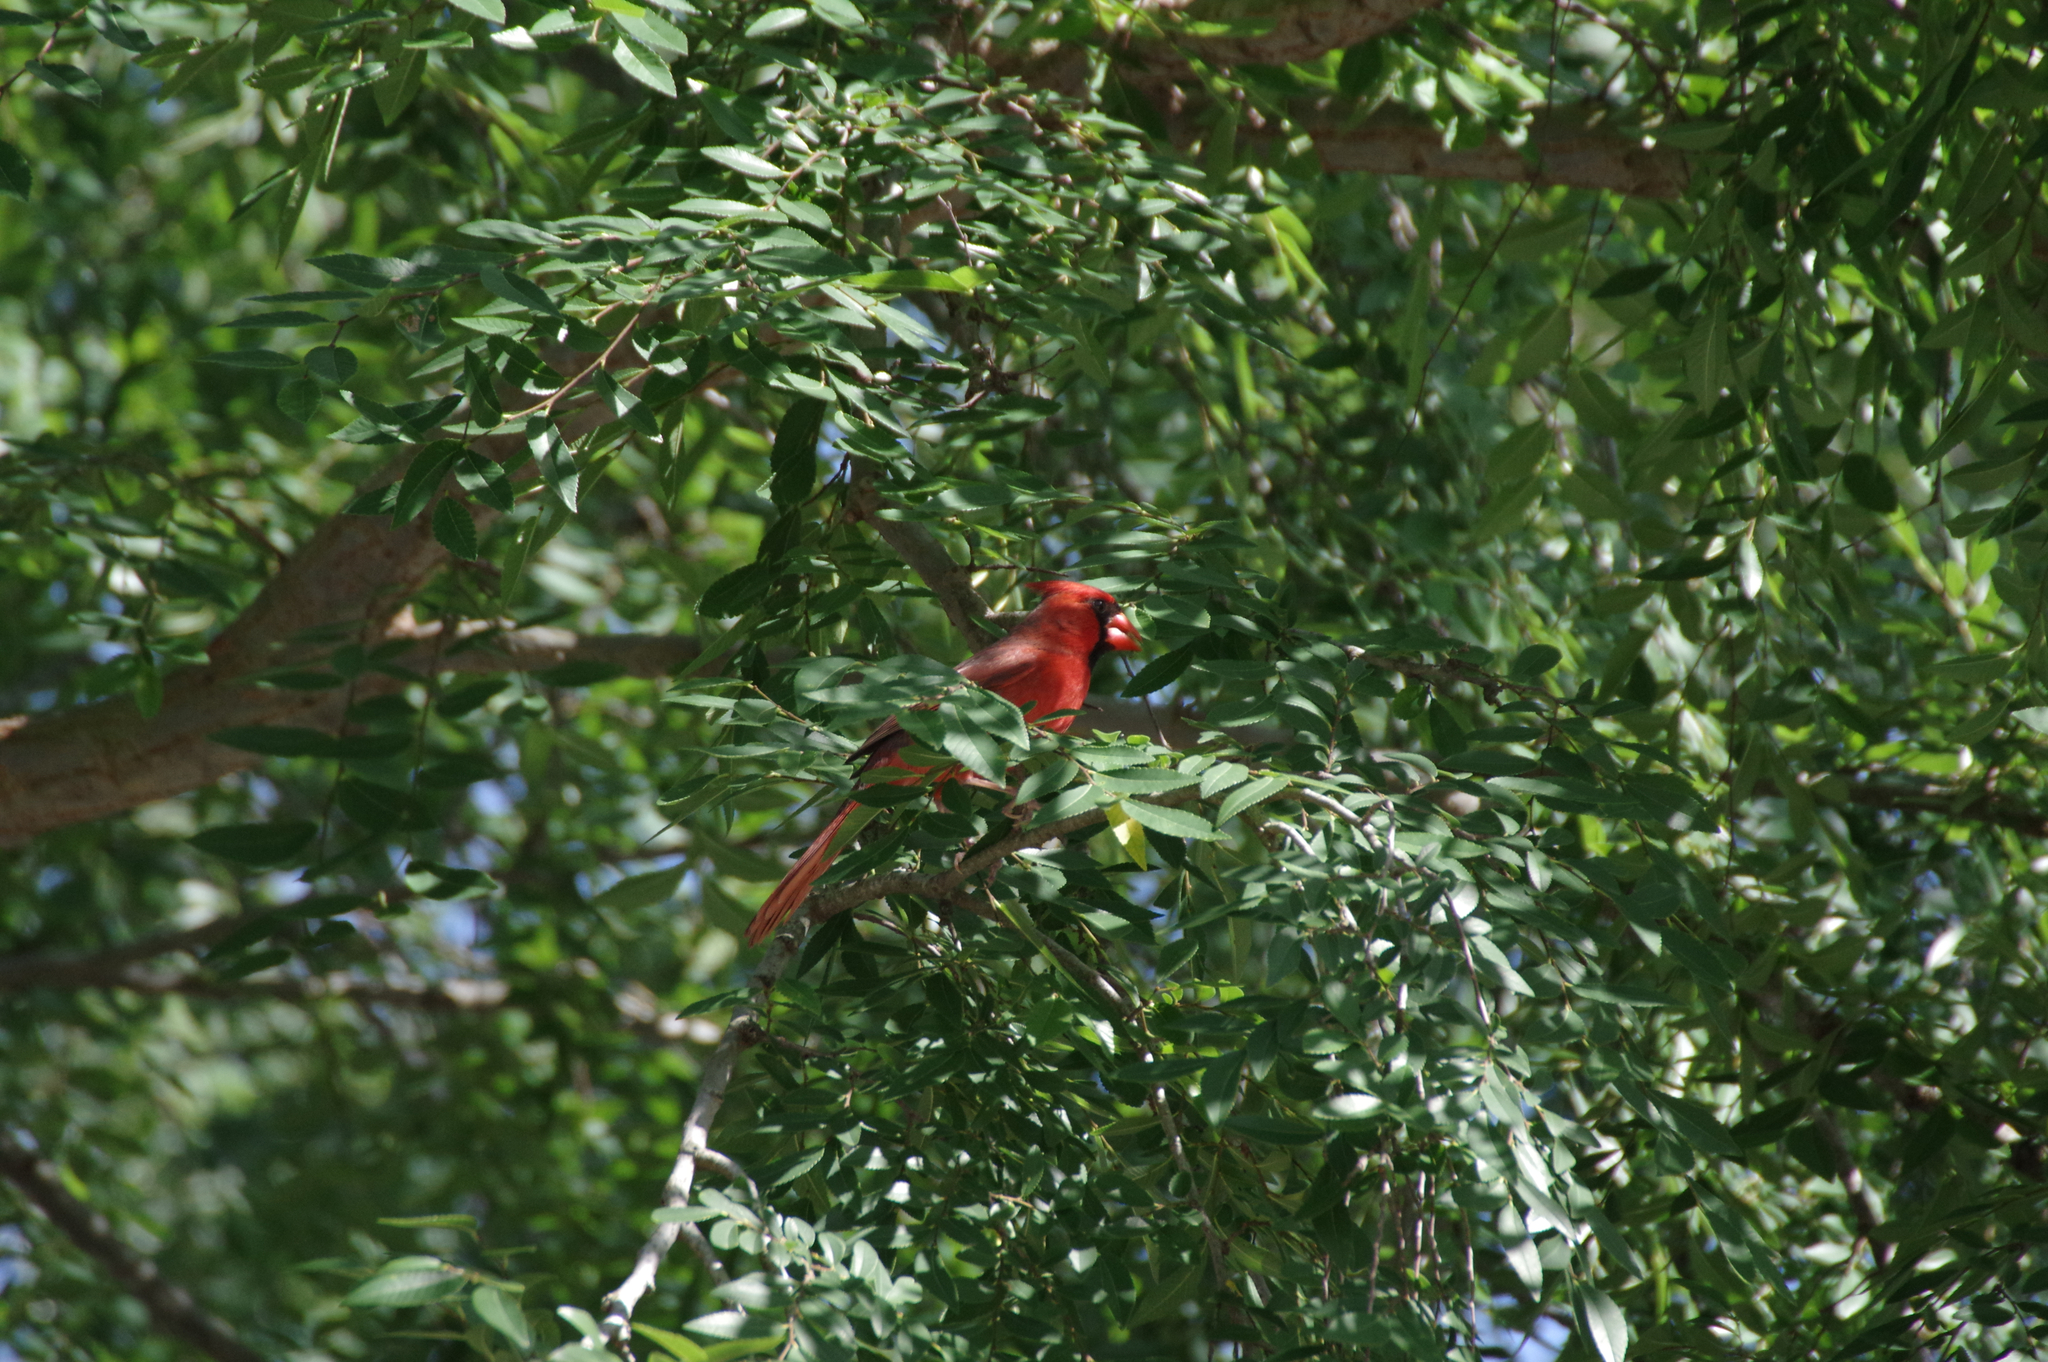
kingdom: Animalia
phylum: Chordata
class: Aves
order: Passeriformes
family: Cardinalidae
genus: Cardinalis
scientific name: Cardinalis cardinalis
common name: Northern cardinal
